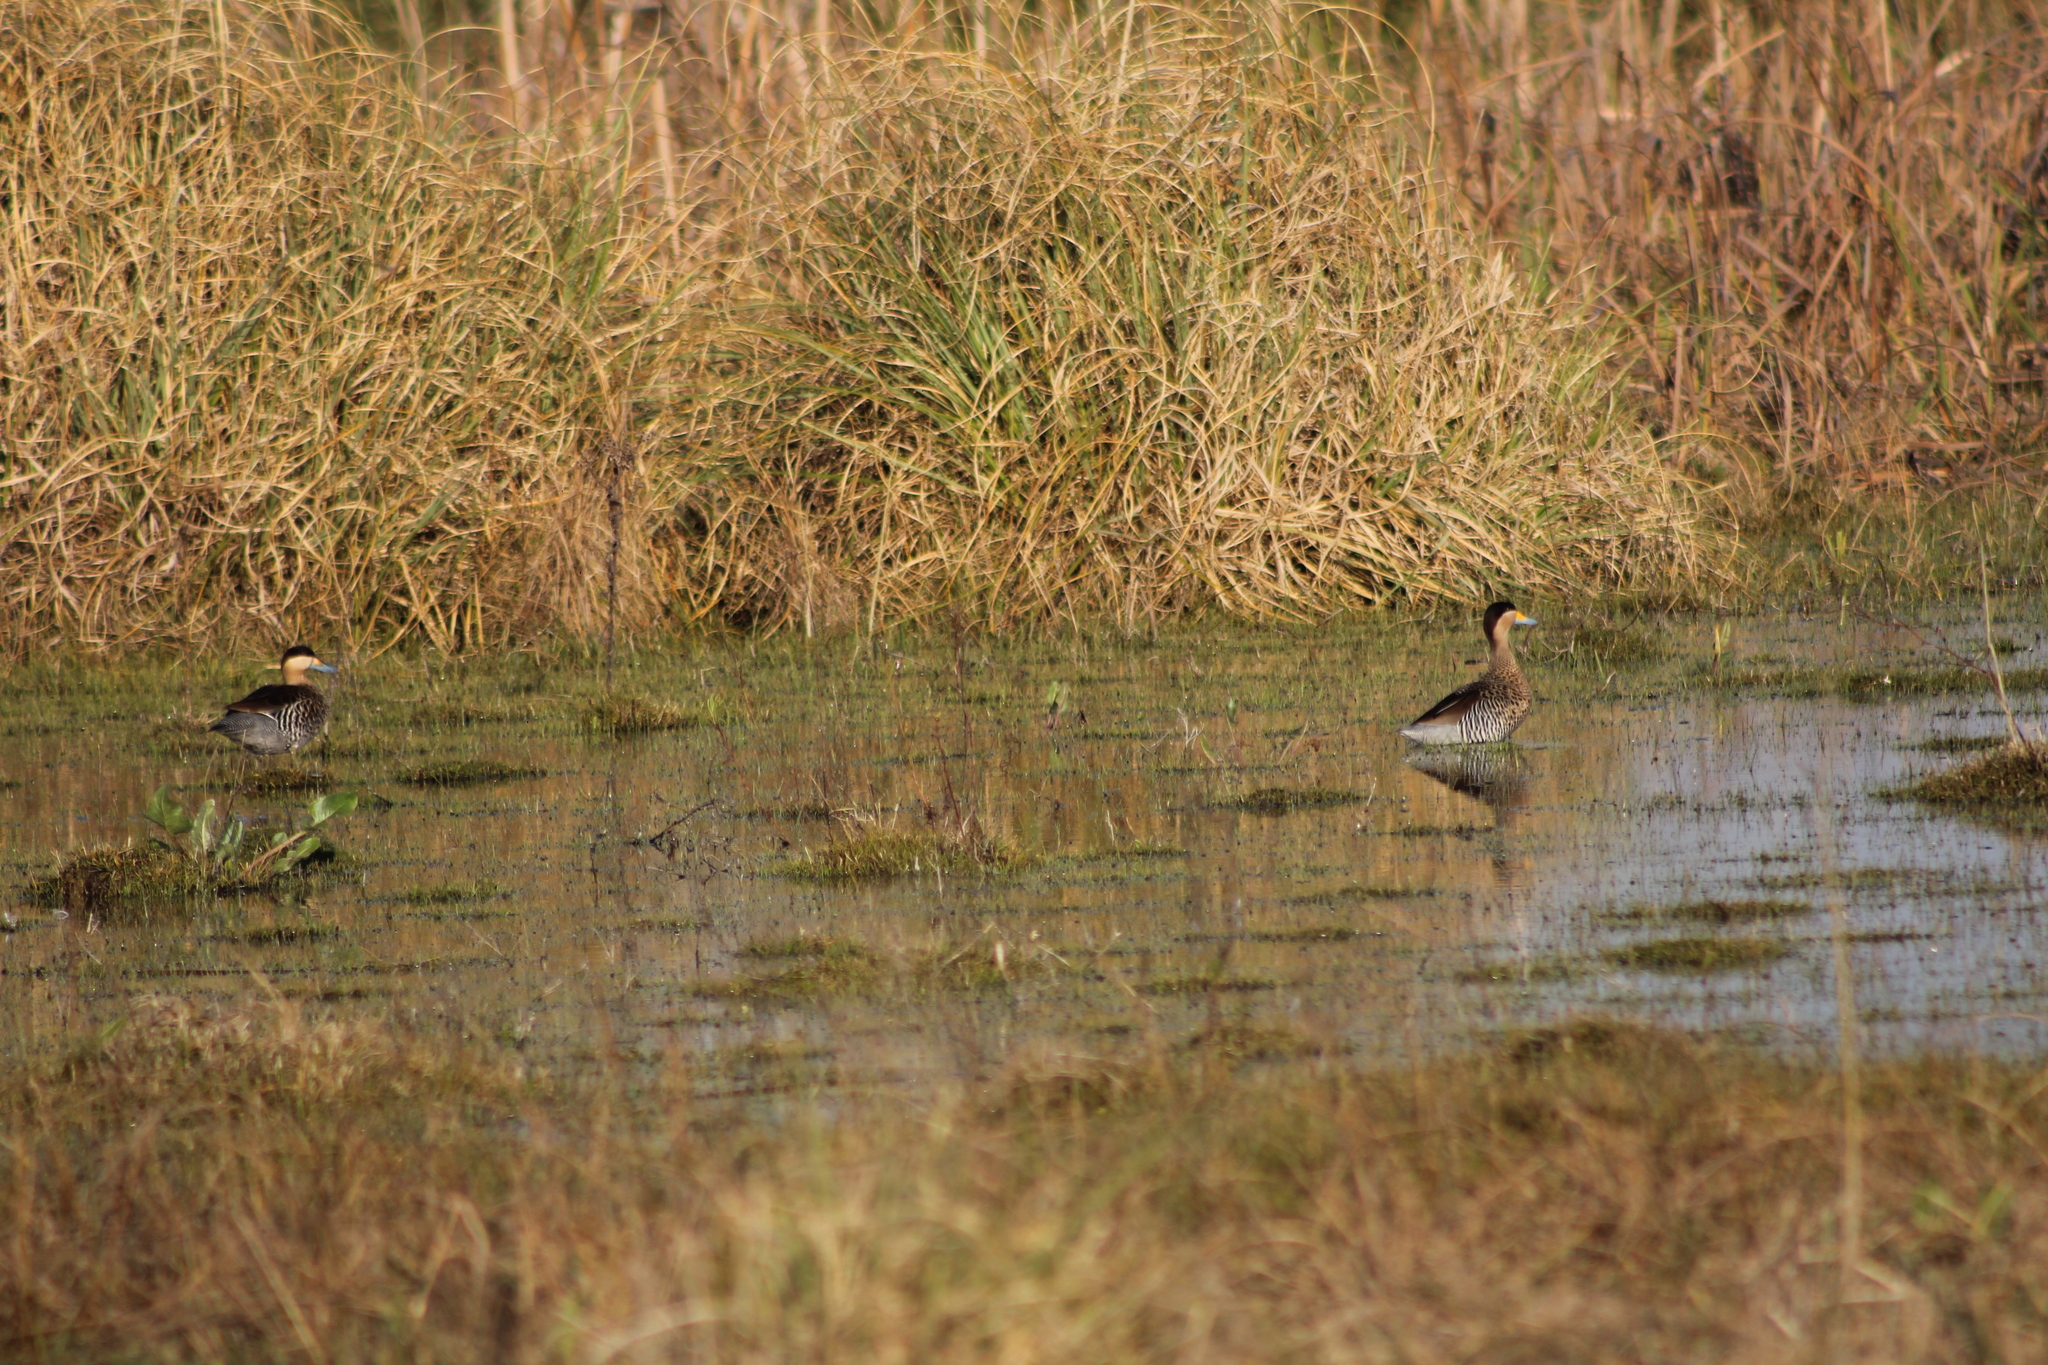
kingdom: Animalia
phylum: Chordata
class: Aves
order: Anseriformes
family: Anatidae
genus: Spatula
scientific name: Spatula versicolor
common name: Silver teal
